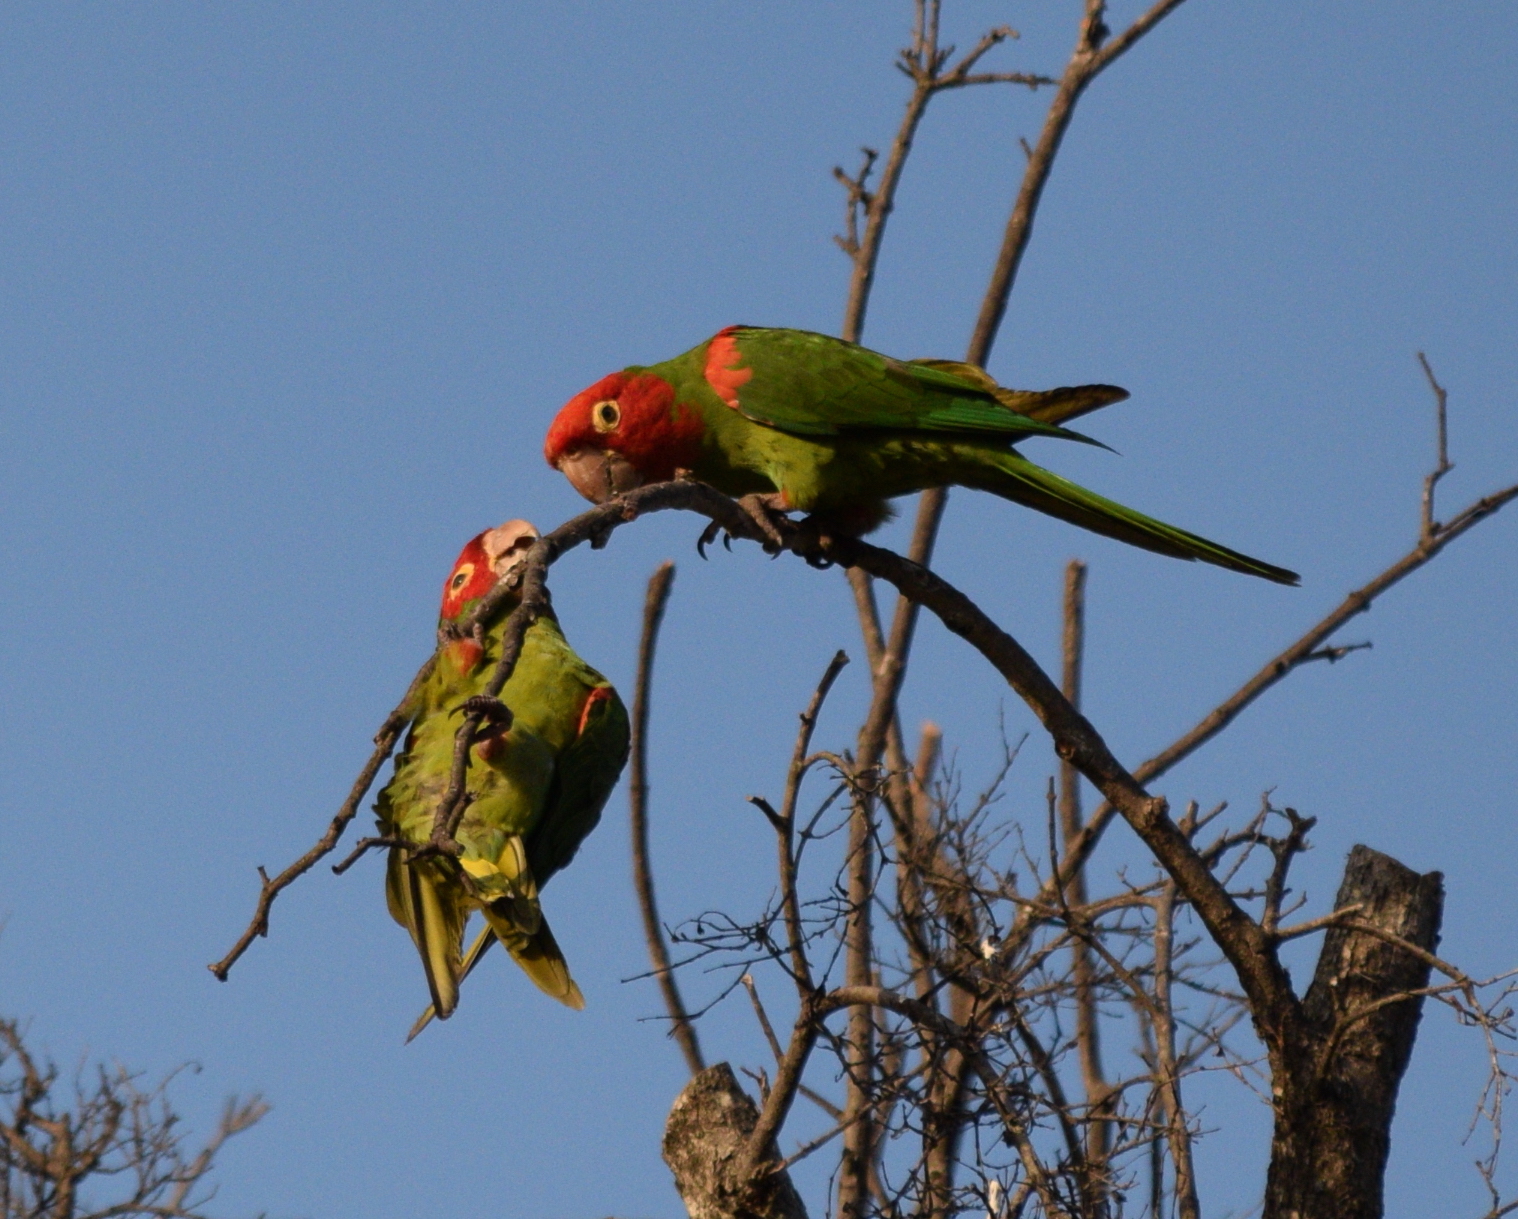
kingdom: Animalia
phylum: Chordata
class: Aves
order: Psittaciformes
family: Psittacidae
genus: Aratinga
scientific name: Aratinga erythrogenys
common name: Red-masked parakeet
